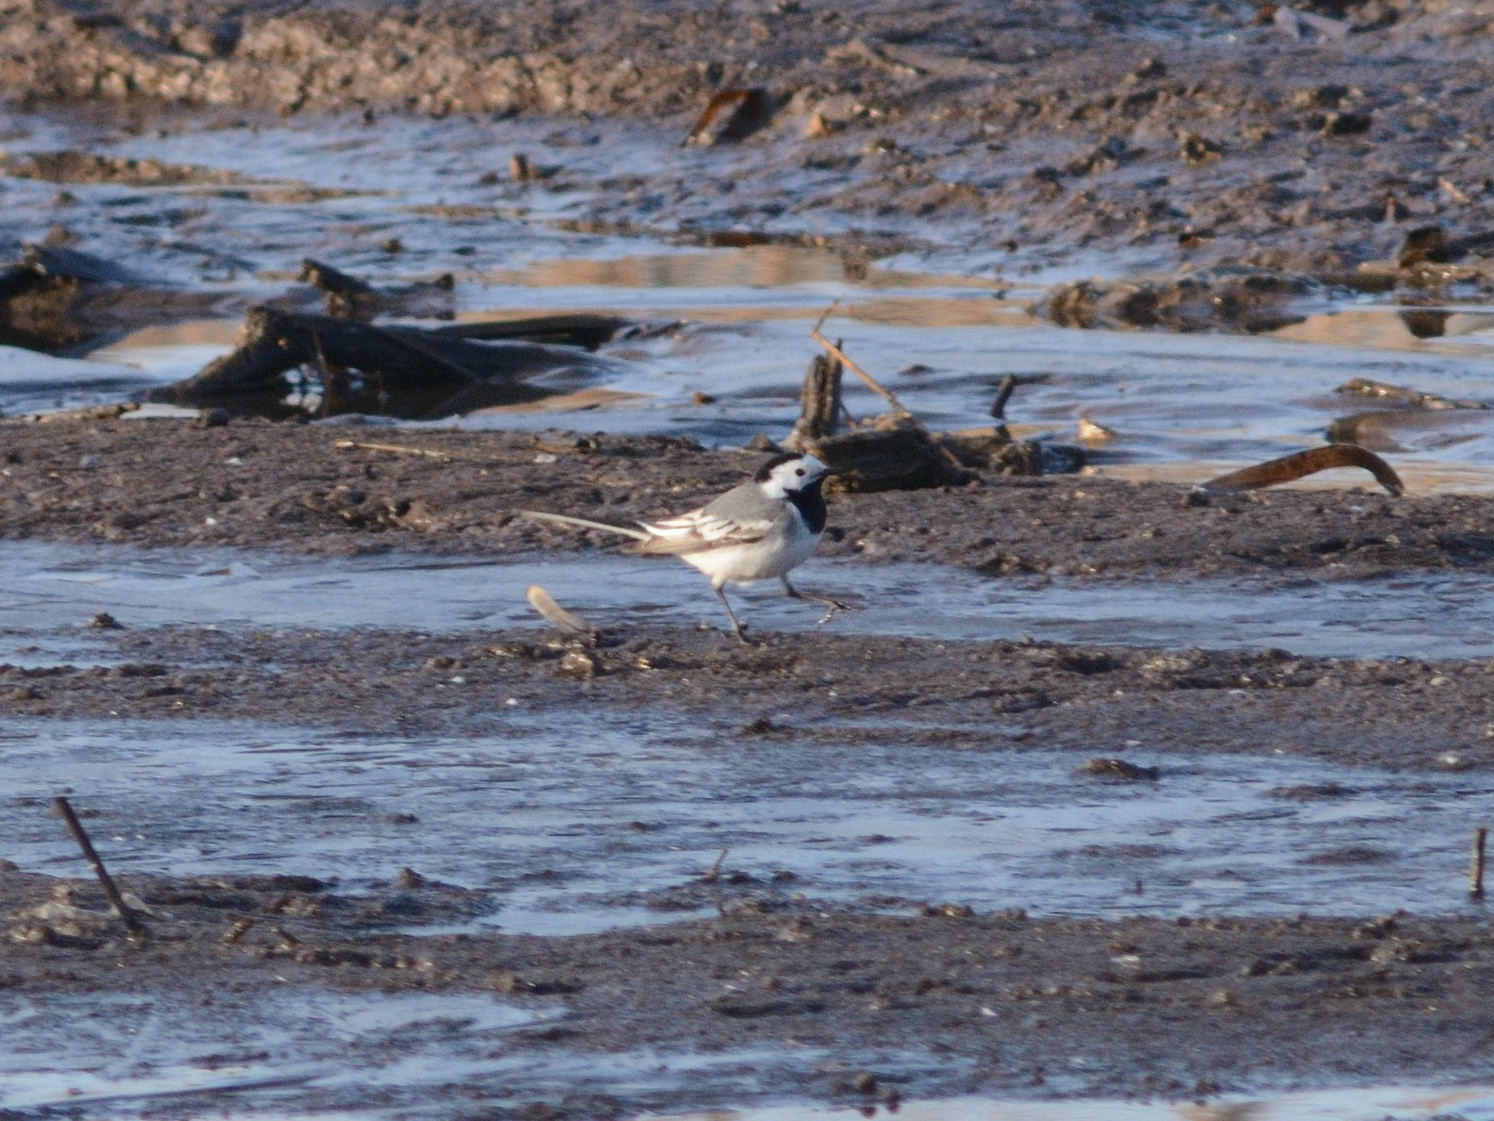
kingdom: Animalia
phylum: Chordata
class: Aves
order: Passeriformes
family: Motacillidae
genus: Motacilla
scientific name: Motacilla alba
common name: White wagtail
